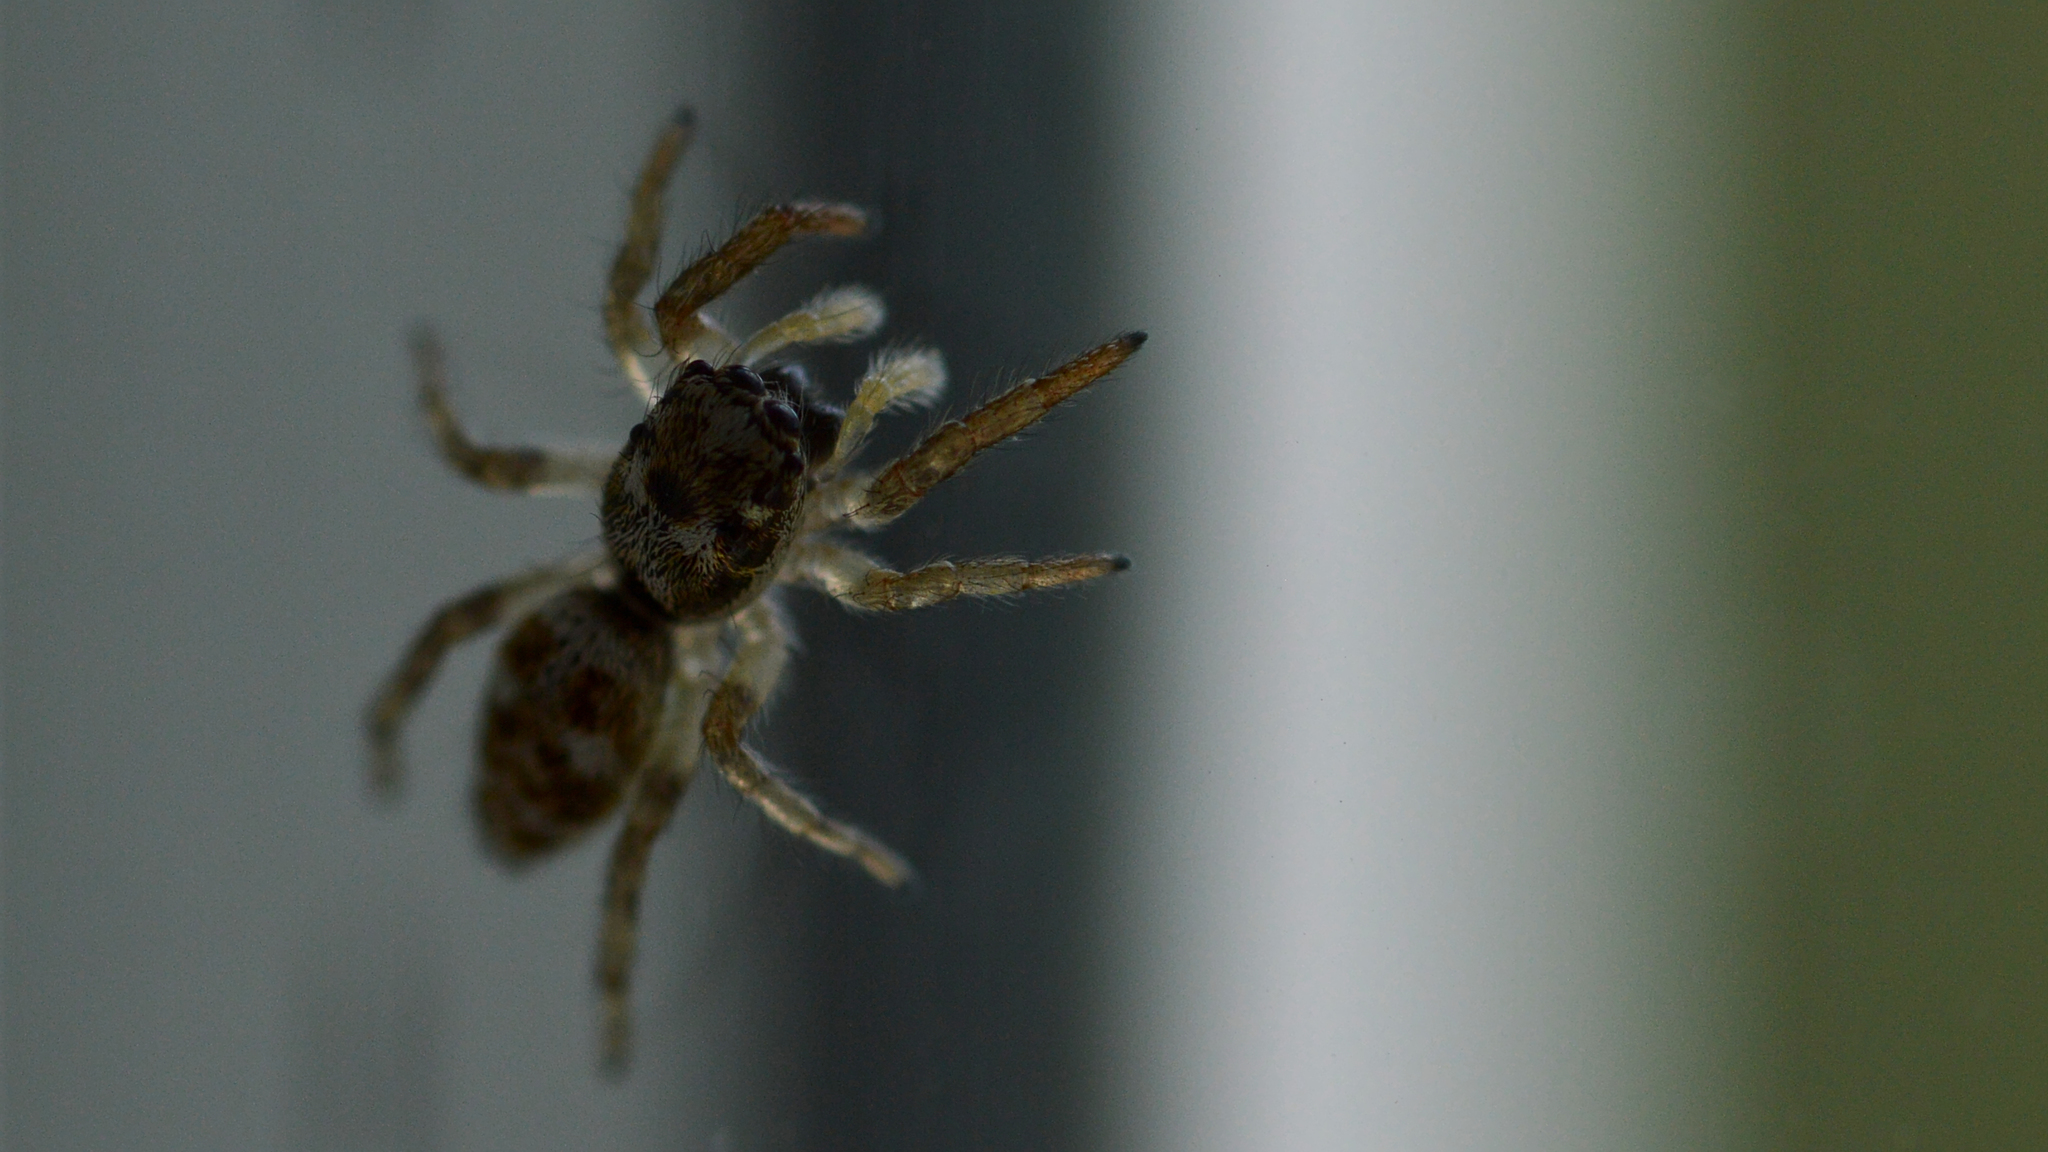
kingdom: Animalia
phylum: Arthropoda
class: Arachnida
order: Araneae
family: Salticidae
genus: Salticus
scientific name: Salticus scenicus
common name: Zebra jumper
